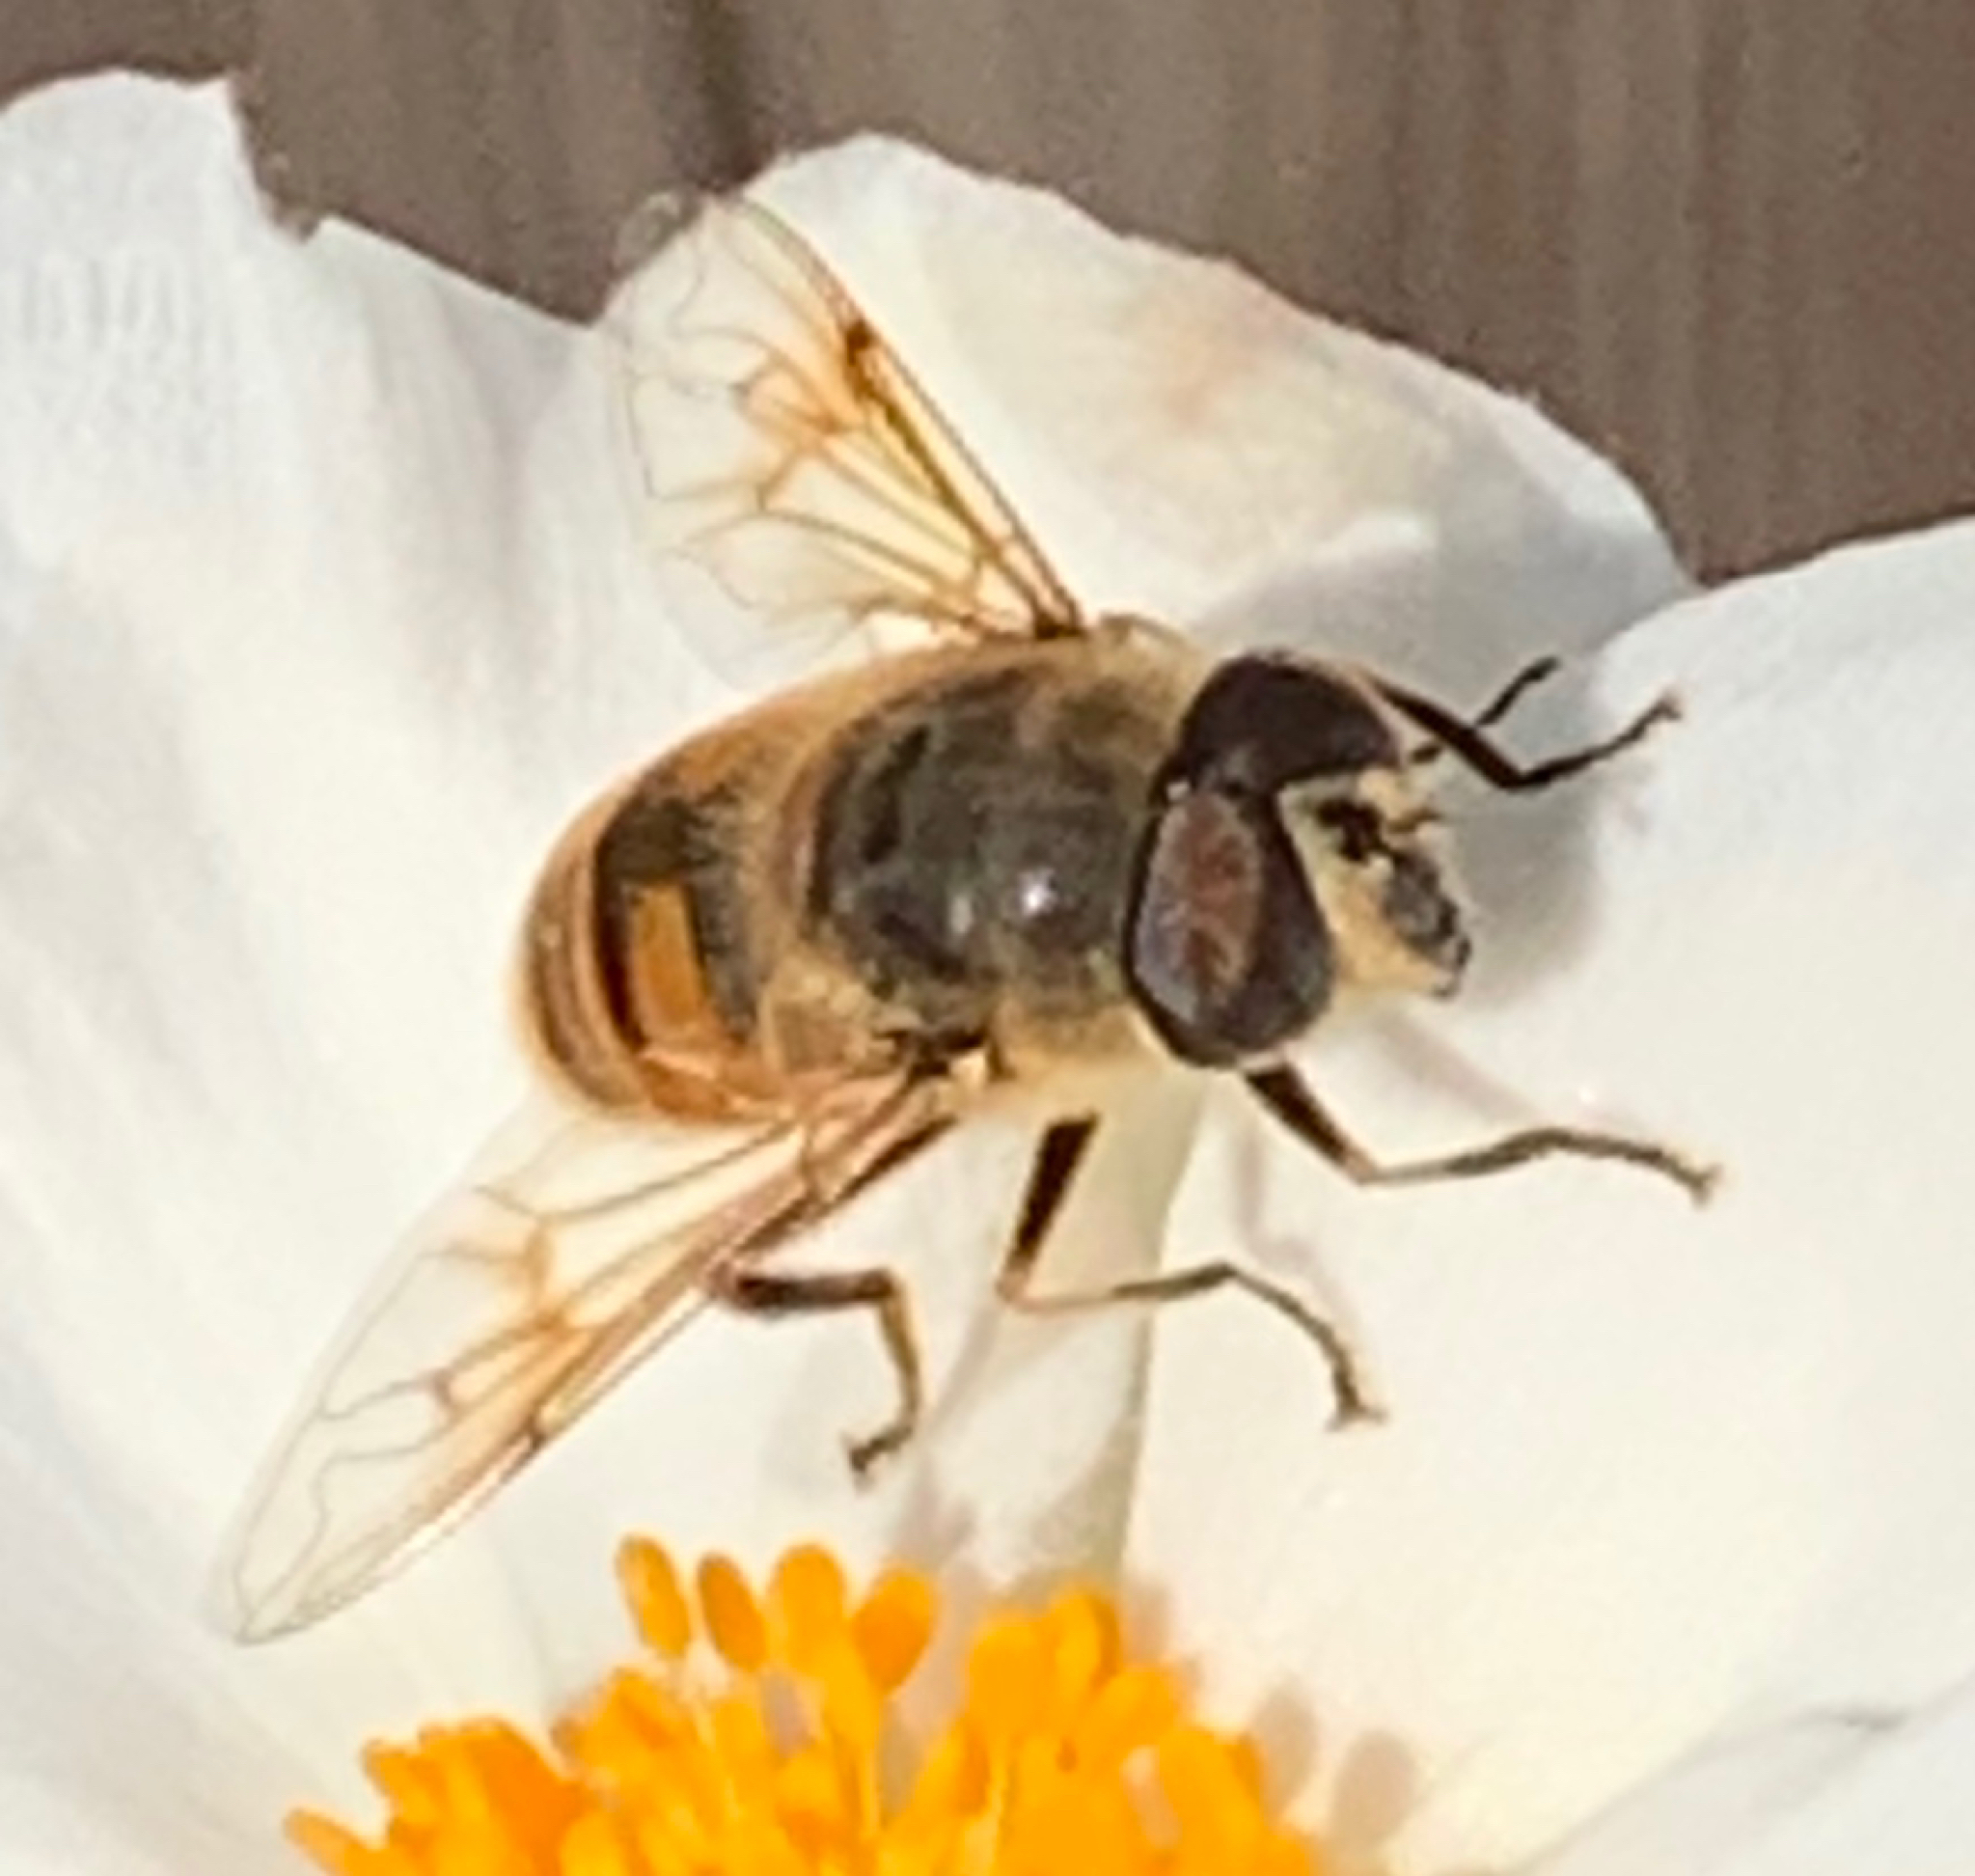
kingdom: Animalia
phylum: Arthropoda
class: Insecta
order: Diptera
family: Syrphidae
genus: Eristalis
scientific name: Eristalis tenax
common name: Drone fly
